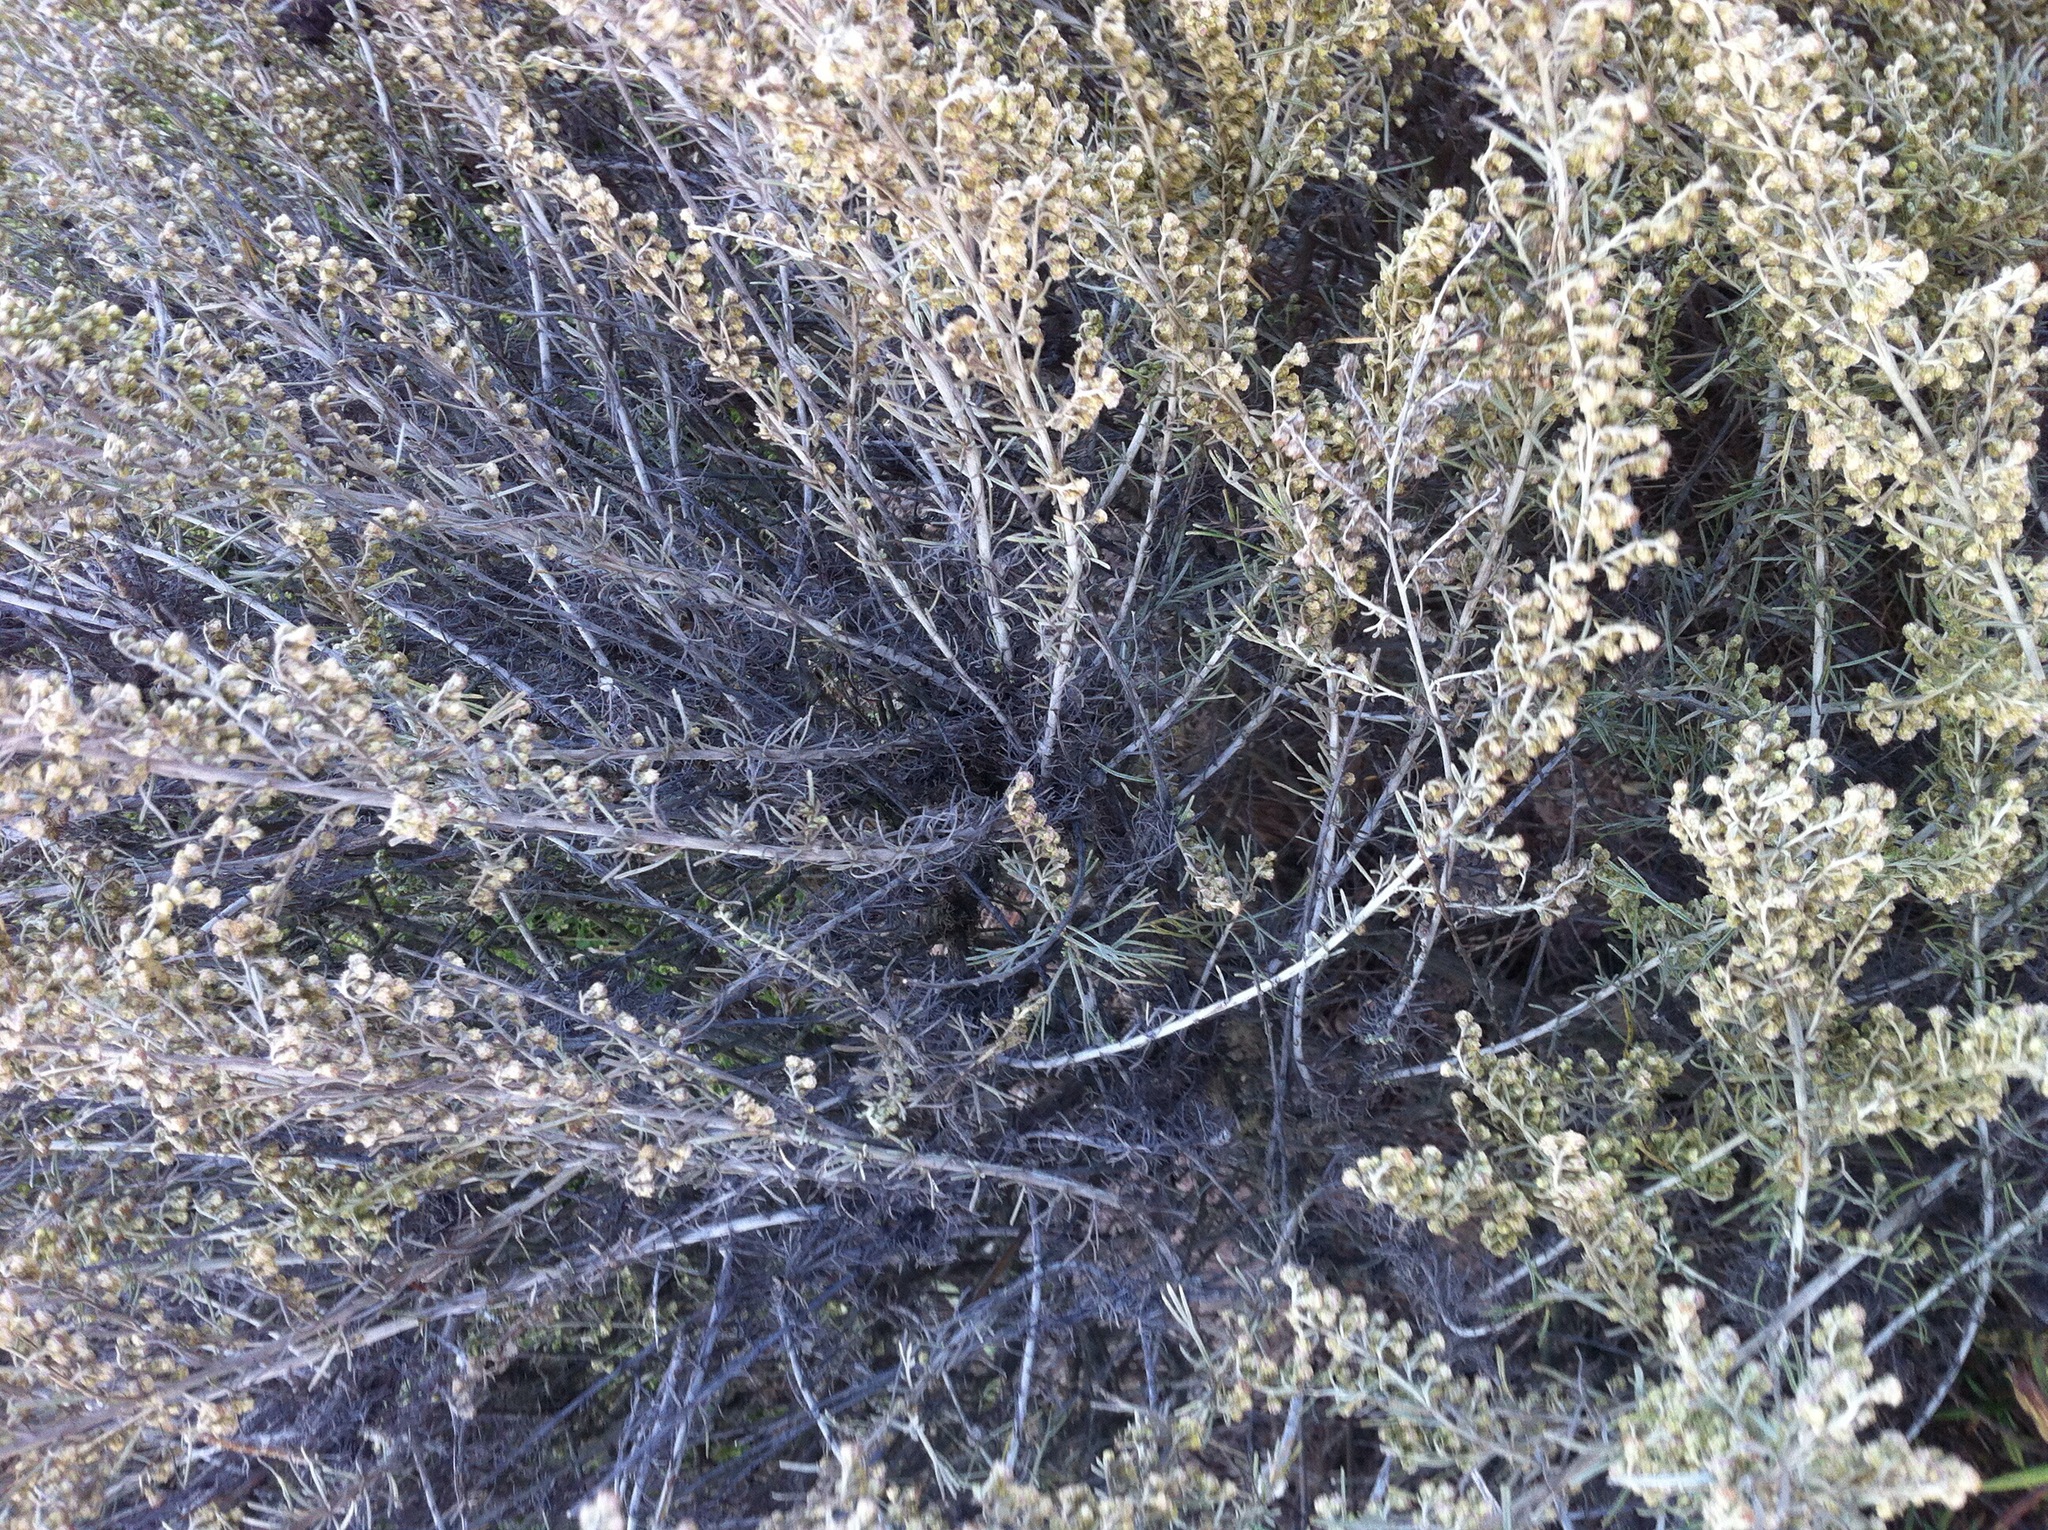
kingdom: Plantae
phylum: Tracheophyta
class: Magnoliopsida
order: Asterales
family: Asteraceae
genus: Artemisia
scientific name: Artemisia californica
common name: California sagebrush
